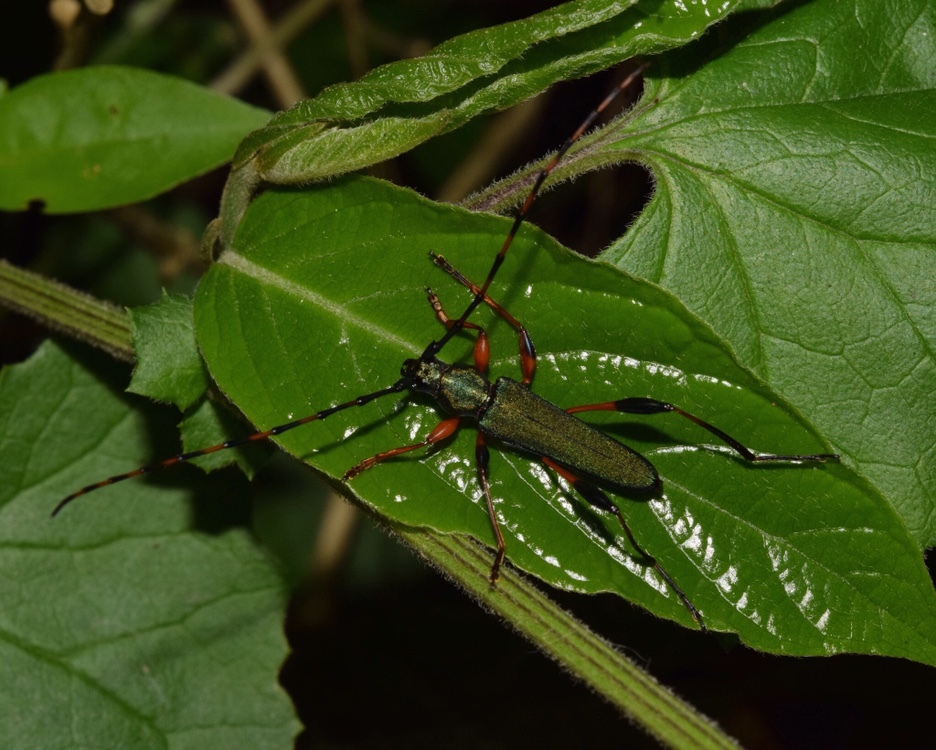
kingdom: Animalia
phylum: Arthropoda
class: Insecta
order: Coleoptera
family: Cerambycidae
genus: Litopus
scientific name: Litopus latipes
